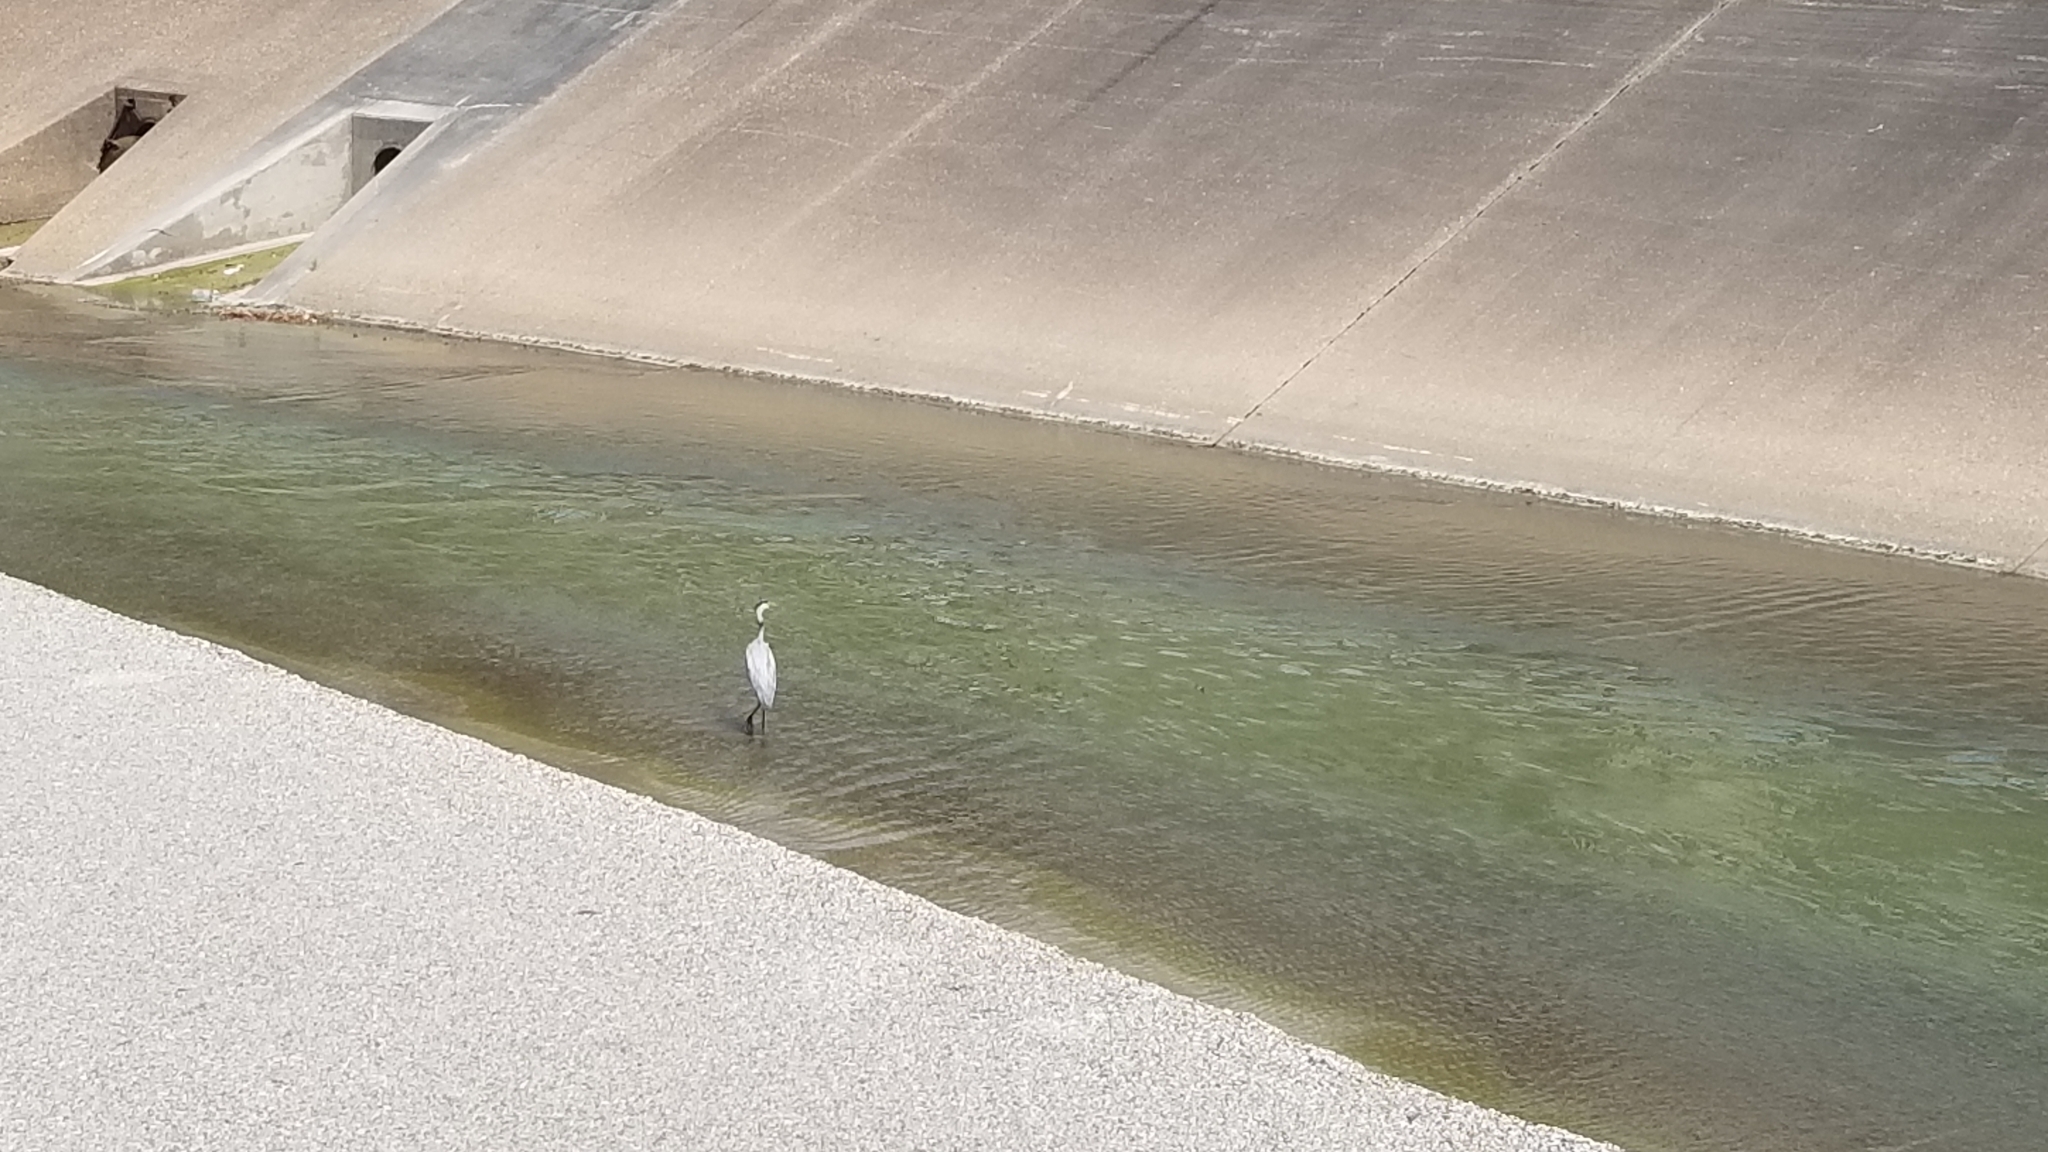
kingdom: Animalia
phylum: Chordata
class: Aves
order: Pelecaniformes
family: Ardeidae
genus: Ardea
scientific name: Ardea herodias
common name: Great blue heron
